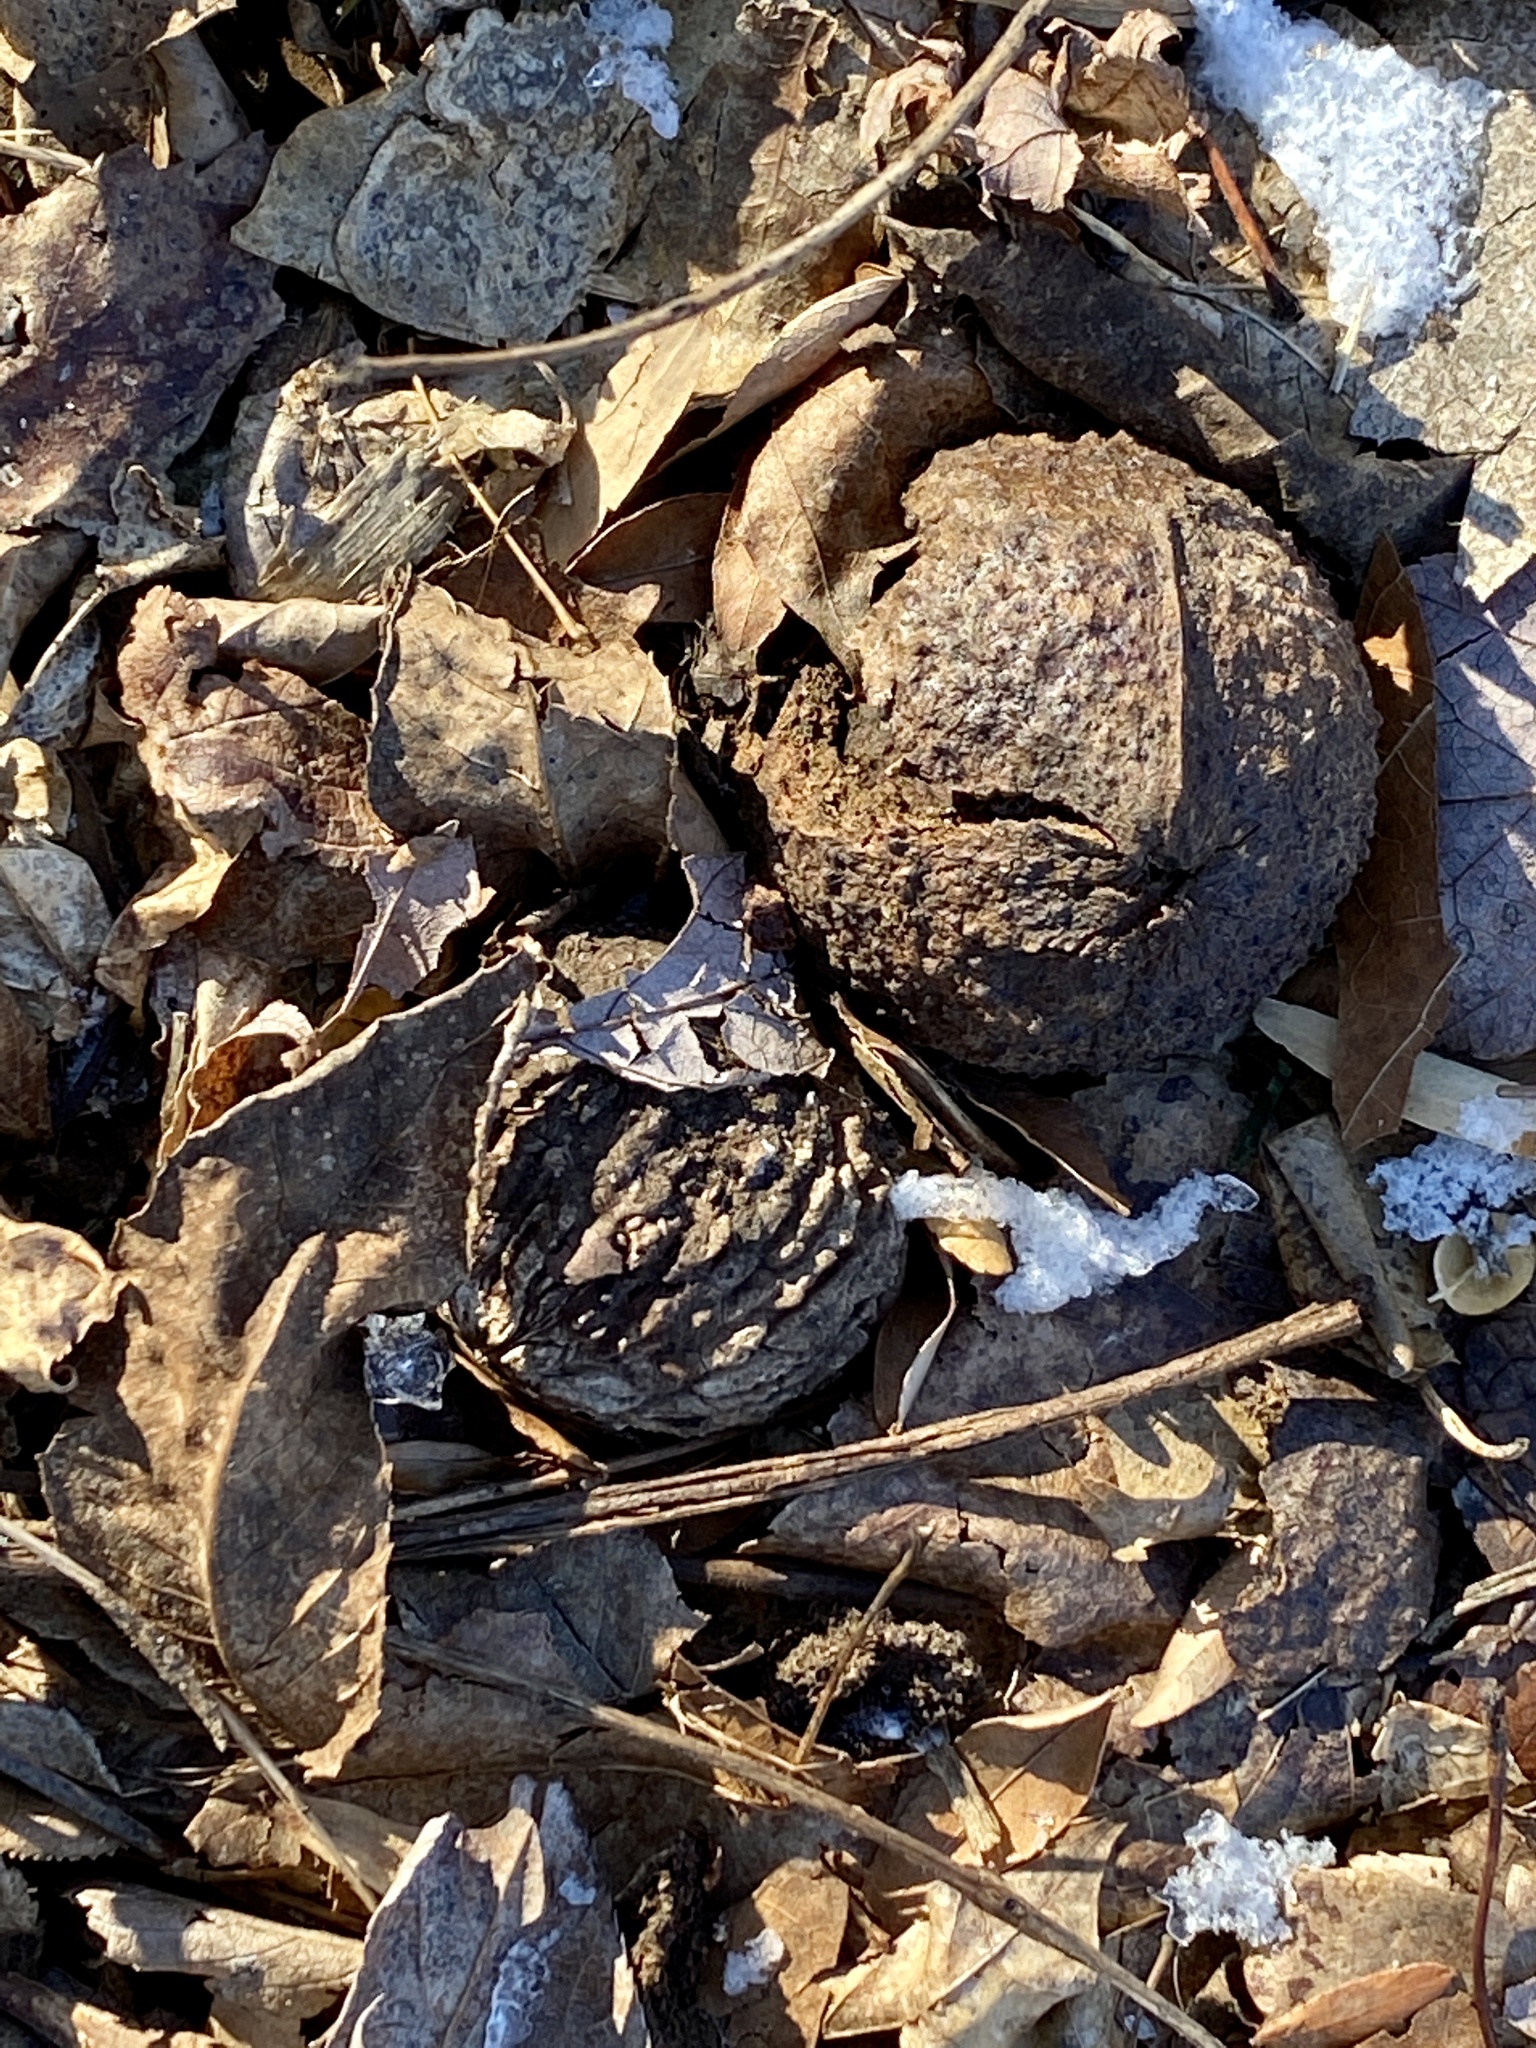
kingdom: Plantae
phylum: Tracheophyta
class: Magnoliopsida
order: Fagales
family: Juglandaceae
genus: Juglans
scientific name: Juglans nigra
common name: Black walnut
